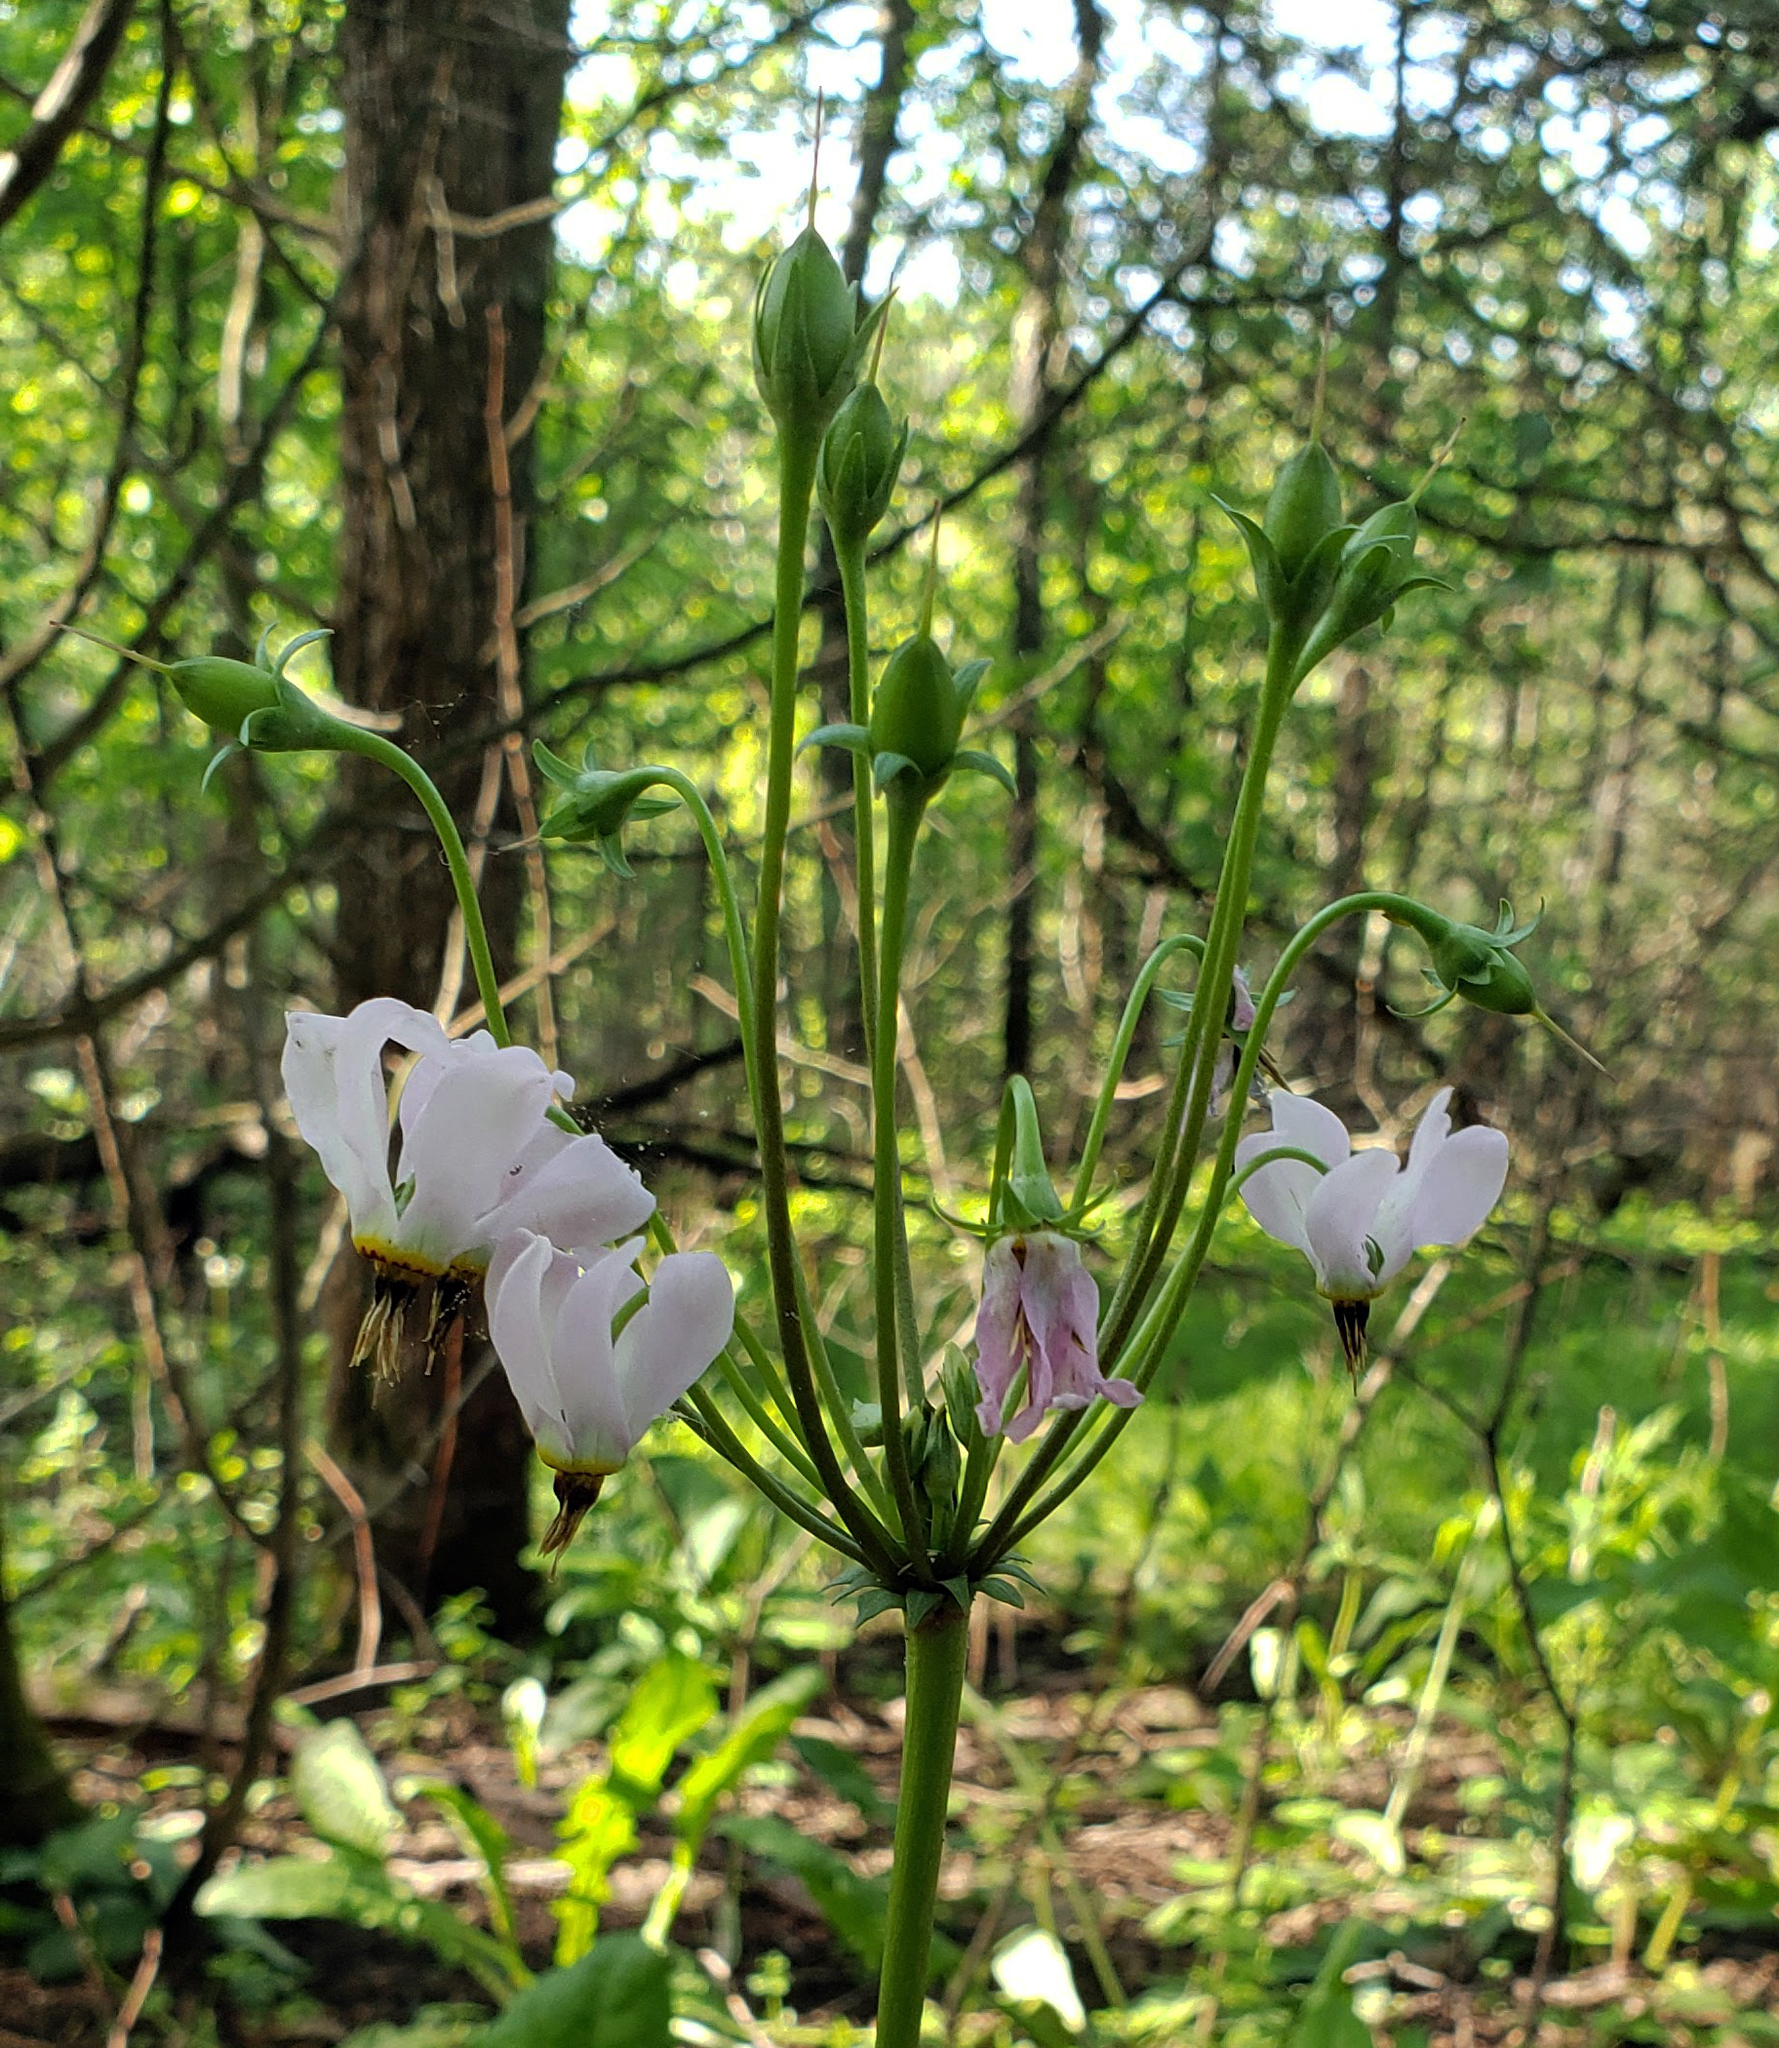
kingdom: Plantae
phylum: Tracheophyta
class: Magnoliopsida
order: Ericales
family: Primulaceae
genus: Dodecatheon
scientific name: Dodecatheon meadia
